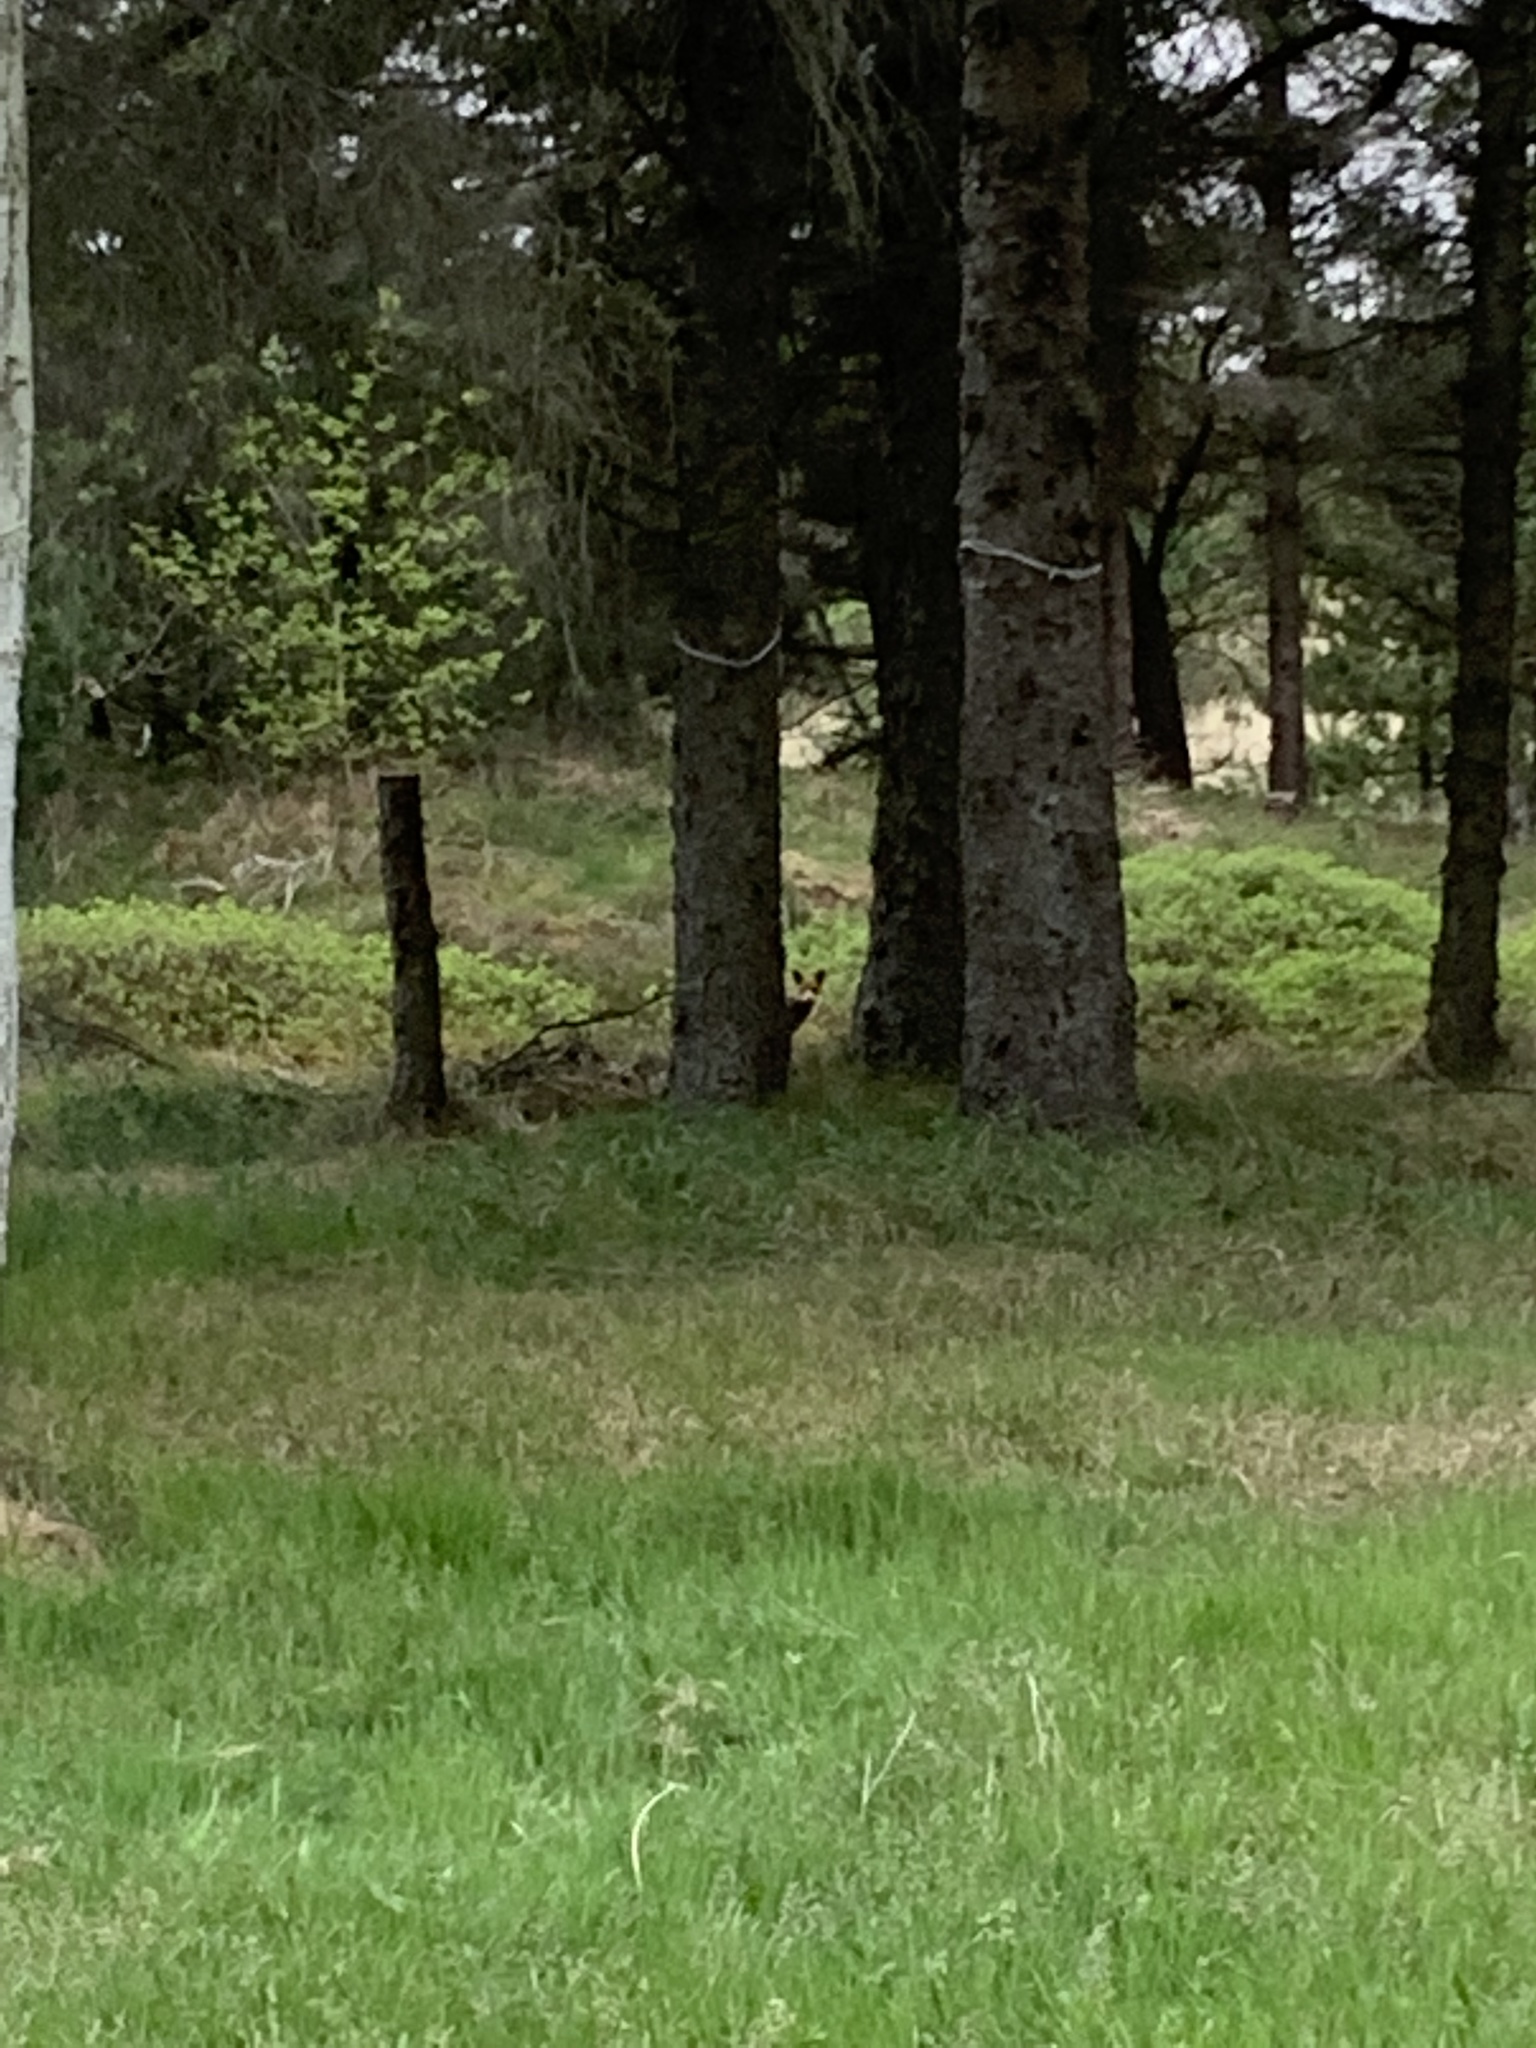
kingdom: Animalia
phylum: Chordata
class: Mammalia
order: Carnivora
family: Canidae
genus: Vulpes
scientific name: Vulpes vulpes
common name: Red fox
